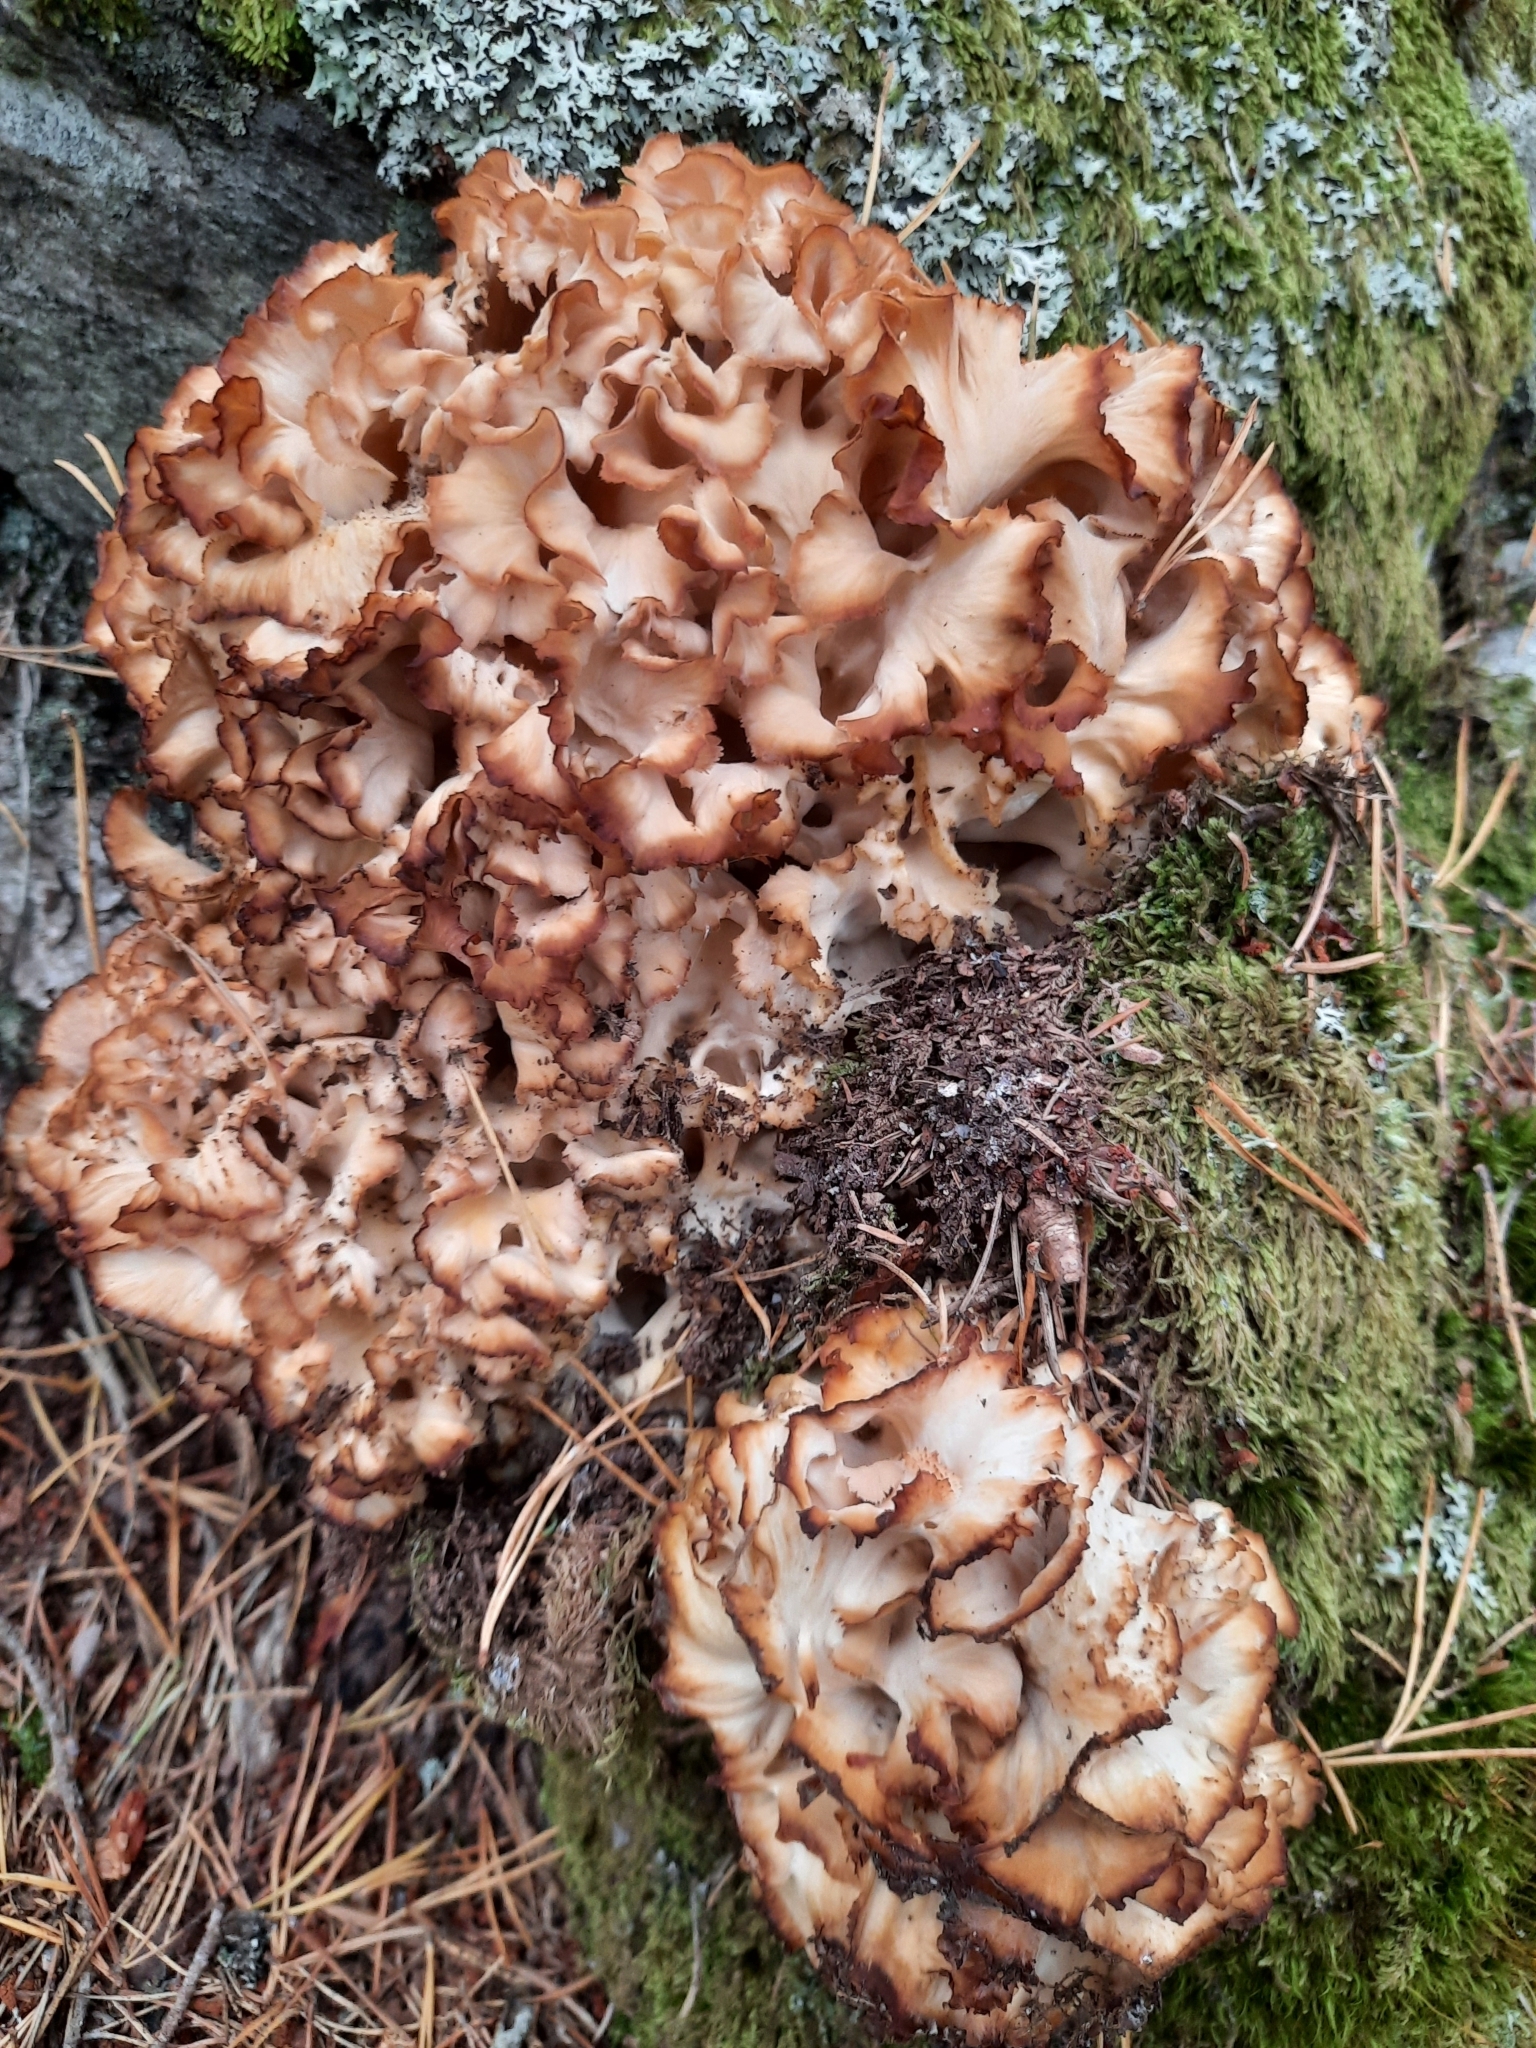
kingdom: Fungi
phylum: Basidiomycota
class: Agaricomycetes
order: Polyporales
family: Sparassidaceae
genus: Sparassis
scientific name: Sparassis crispa
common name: Brain fungus
